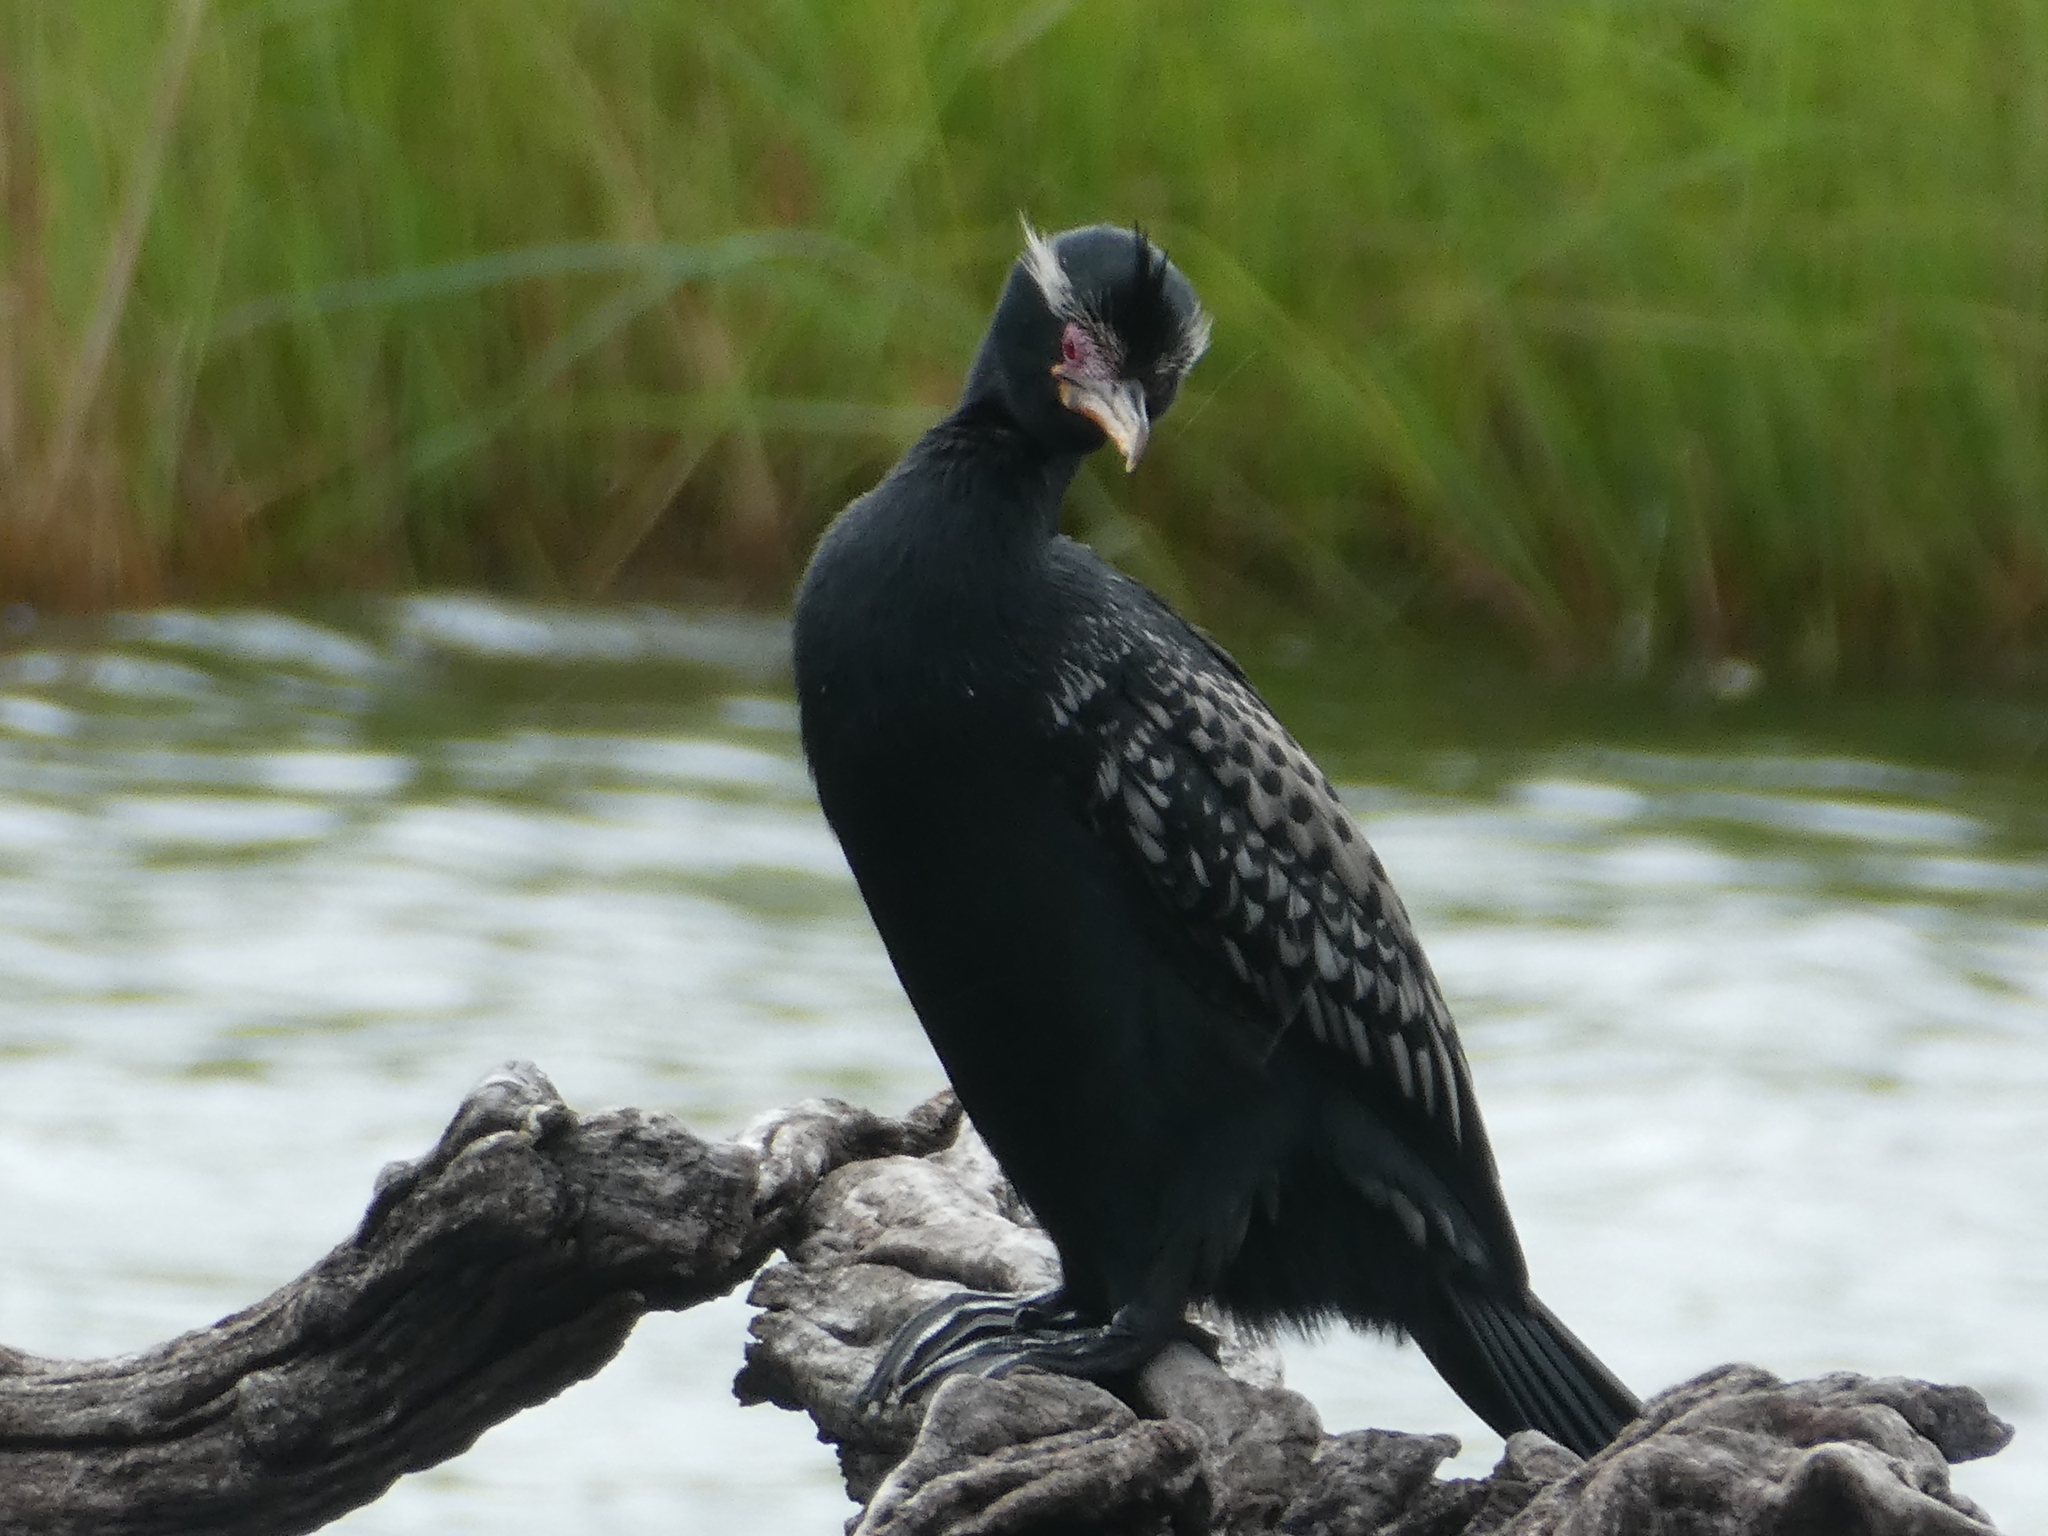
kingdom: Animalia
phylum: Chordata
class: Aves
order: Suliformes
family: Phalacrocoracidae
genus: Microcarbo
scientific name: Microcarbo africanus
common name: Long-tailed cormorant
